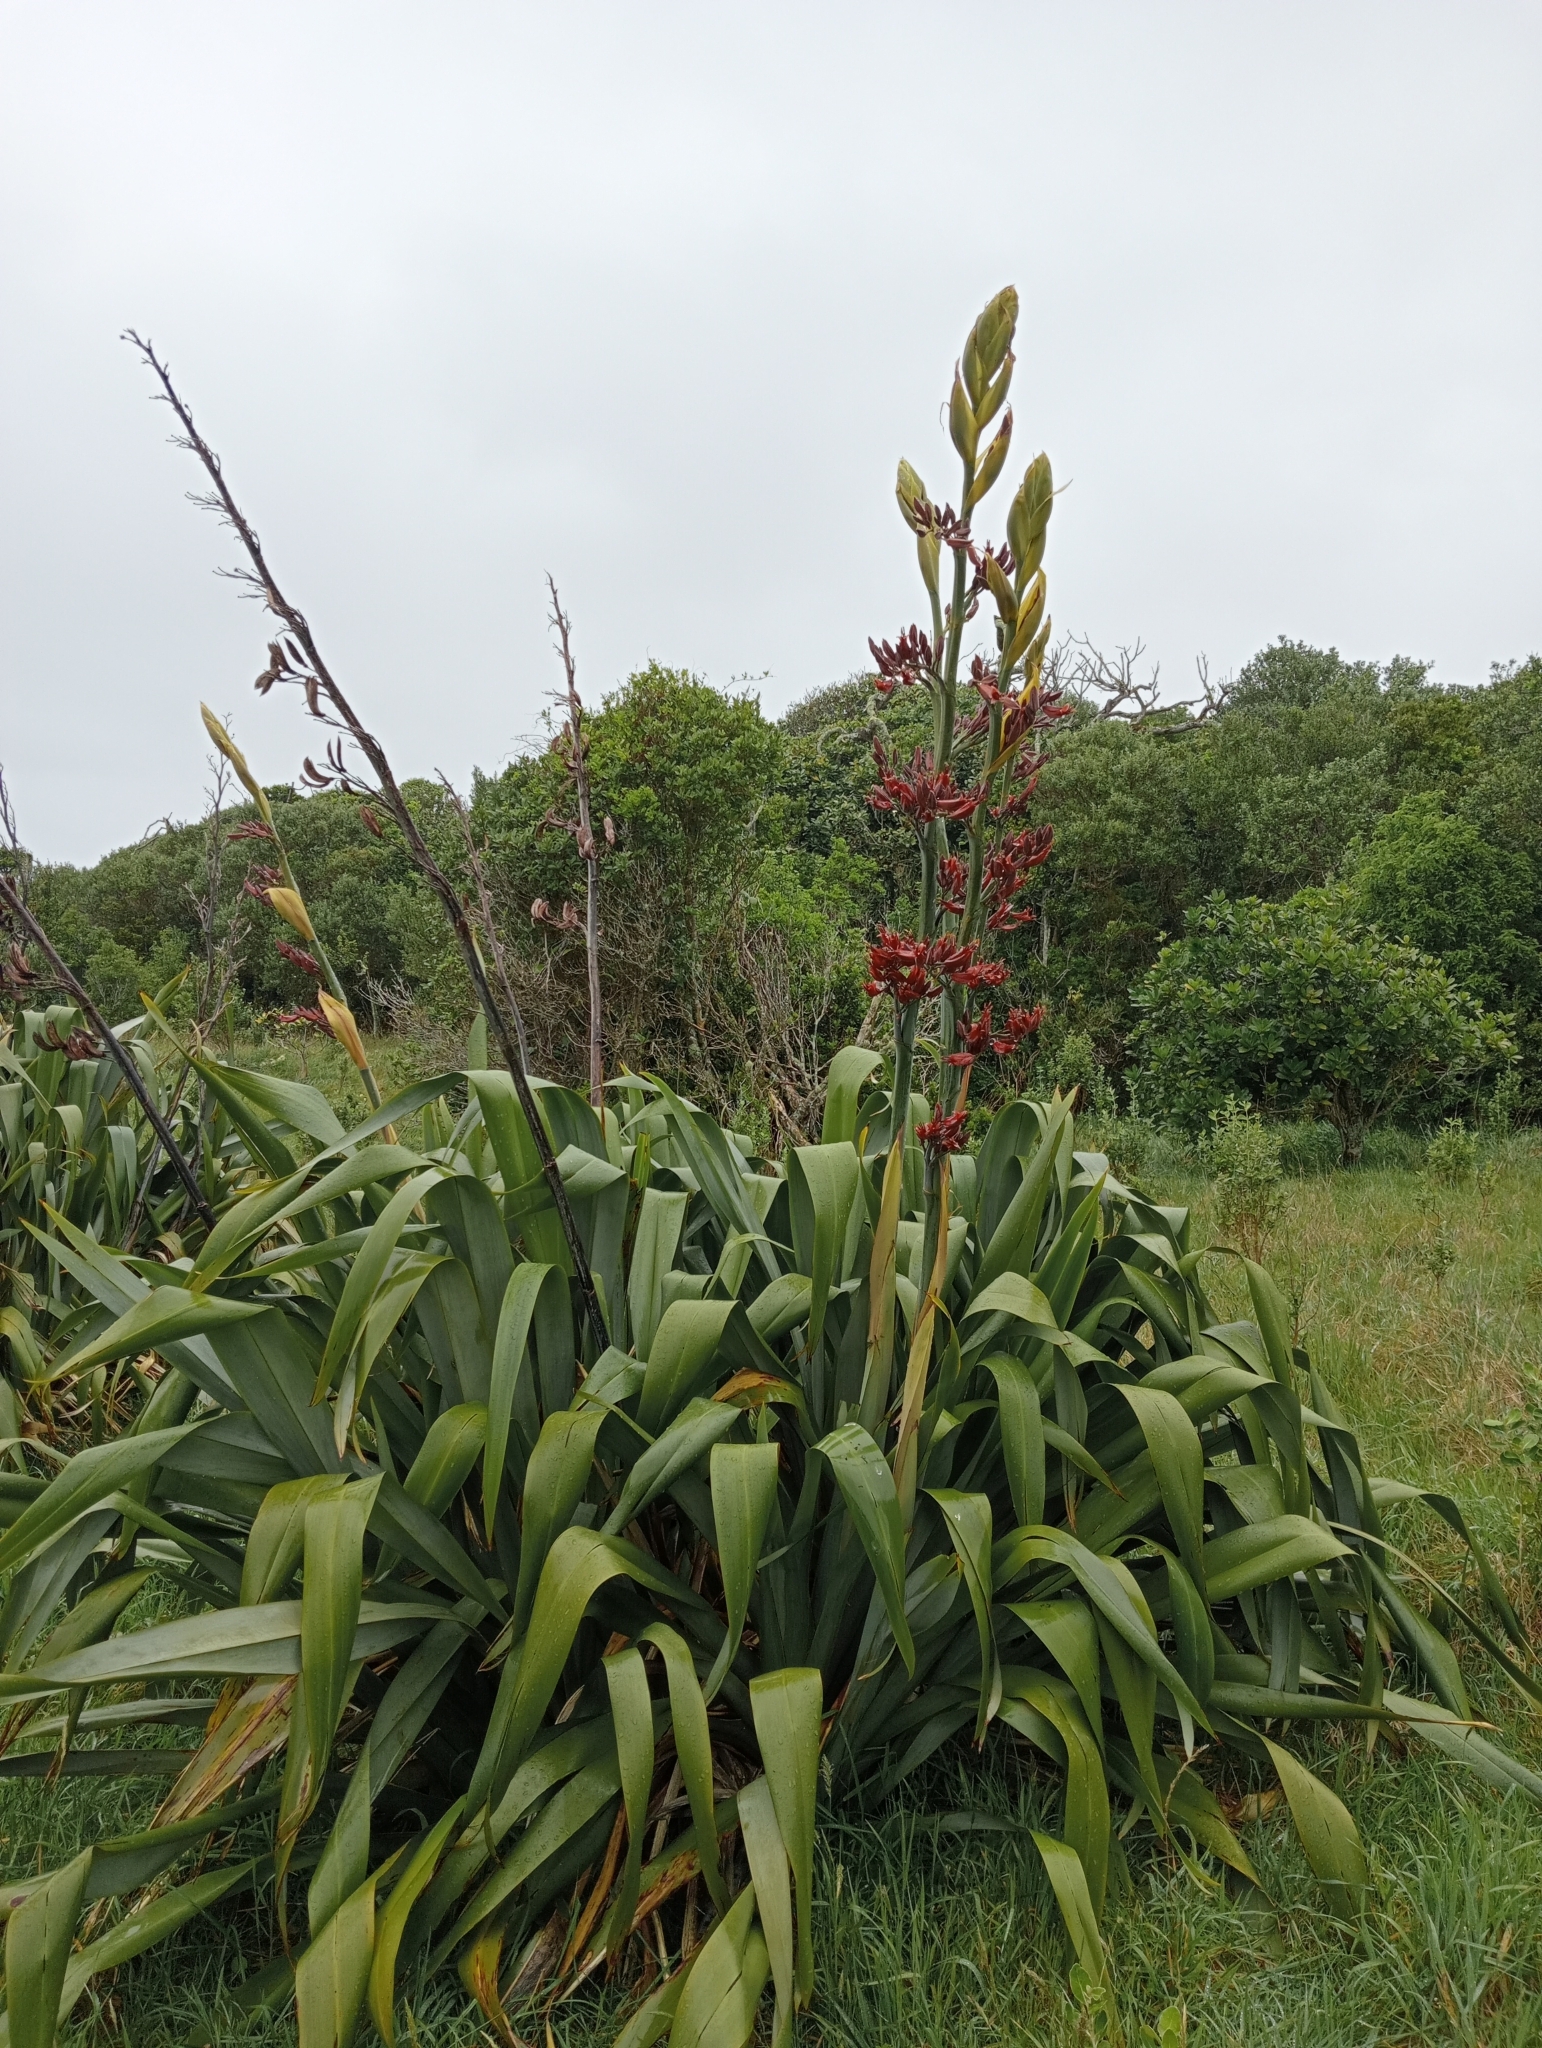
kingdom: Plantae
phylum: Tracheophyta
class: Liliopsida
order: Asparagales
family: Asphodelaceae
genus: Phormium
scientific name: Phormium tenax
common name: New zealand flax
